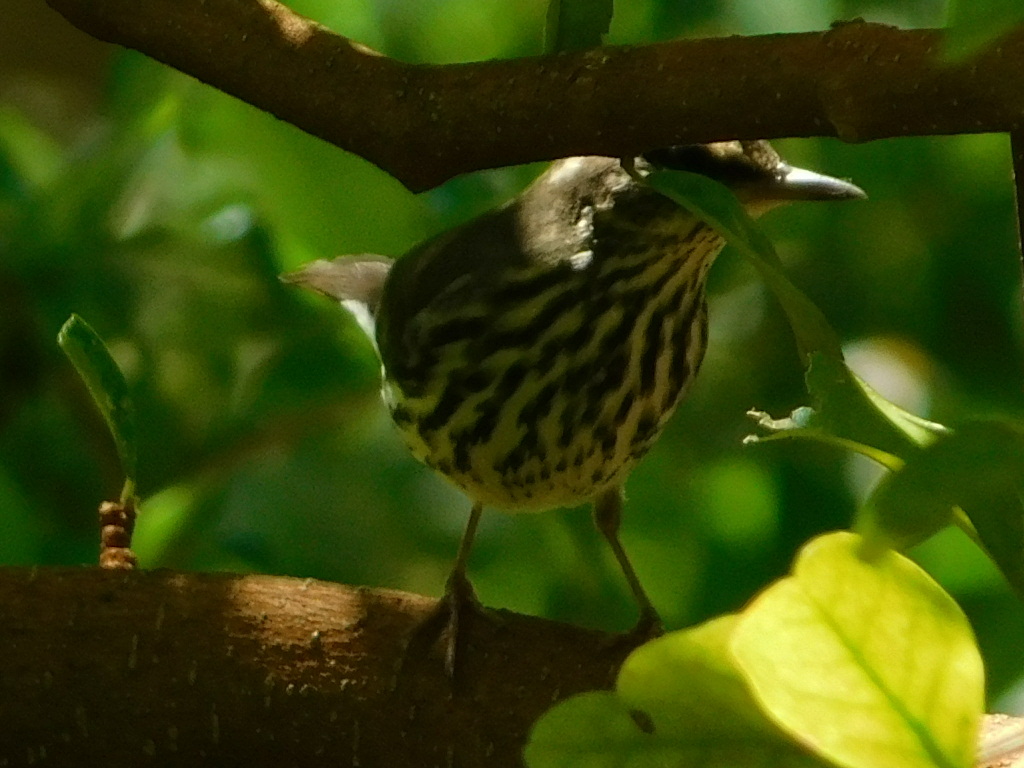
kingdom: Animalia
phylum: Chordata
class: Aves
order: Passeriformes
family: Parulidae
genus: Parkesia
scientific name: Parkesia noveboracensis
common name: Northern waterthrush
